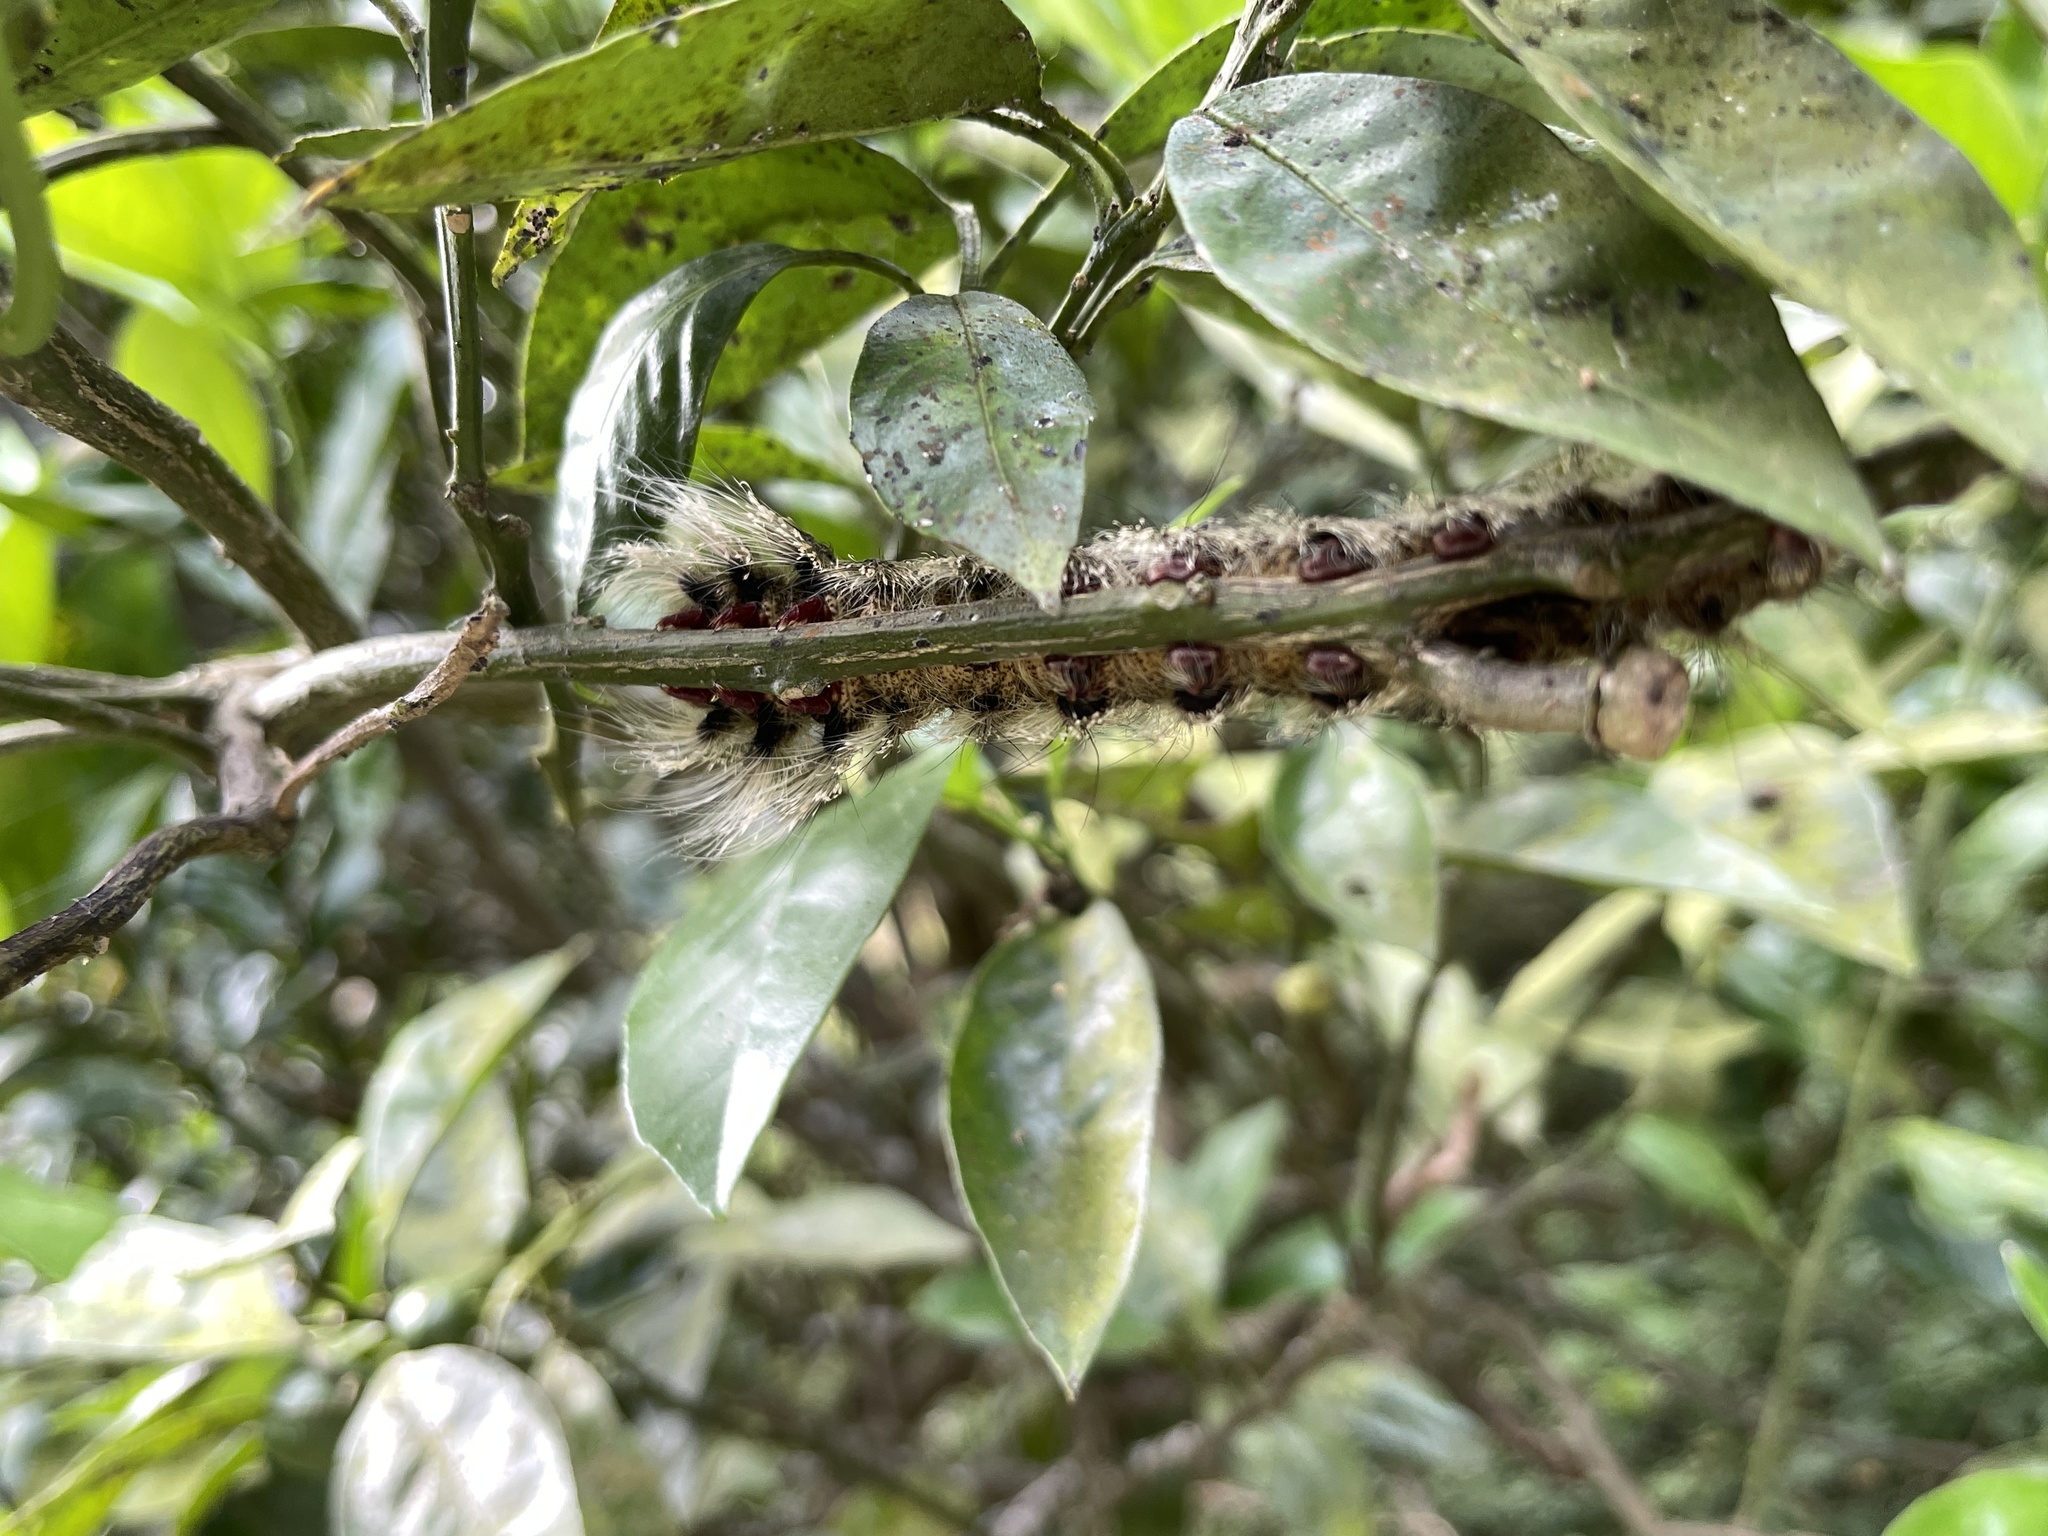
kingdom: Animalia
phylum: Arthropoda
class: Insecta
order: Lepidoptera
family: Lasiocampidae
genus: Lebeda
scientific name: Lebeda nobilis
